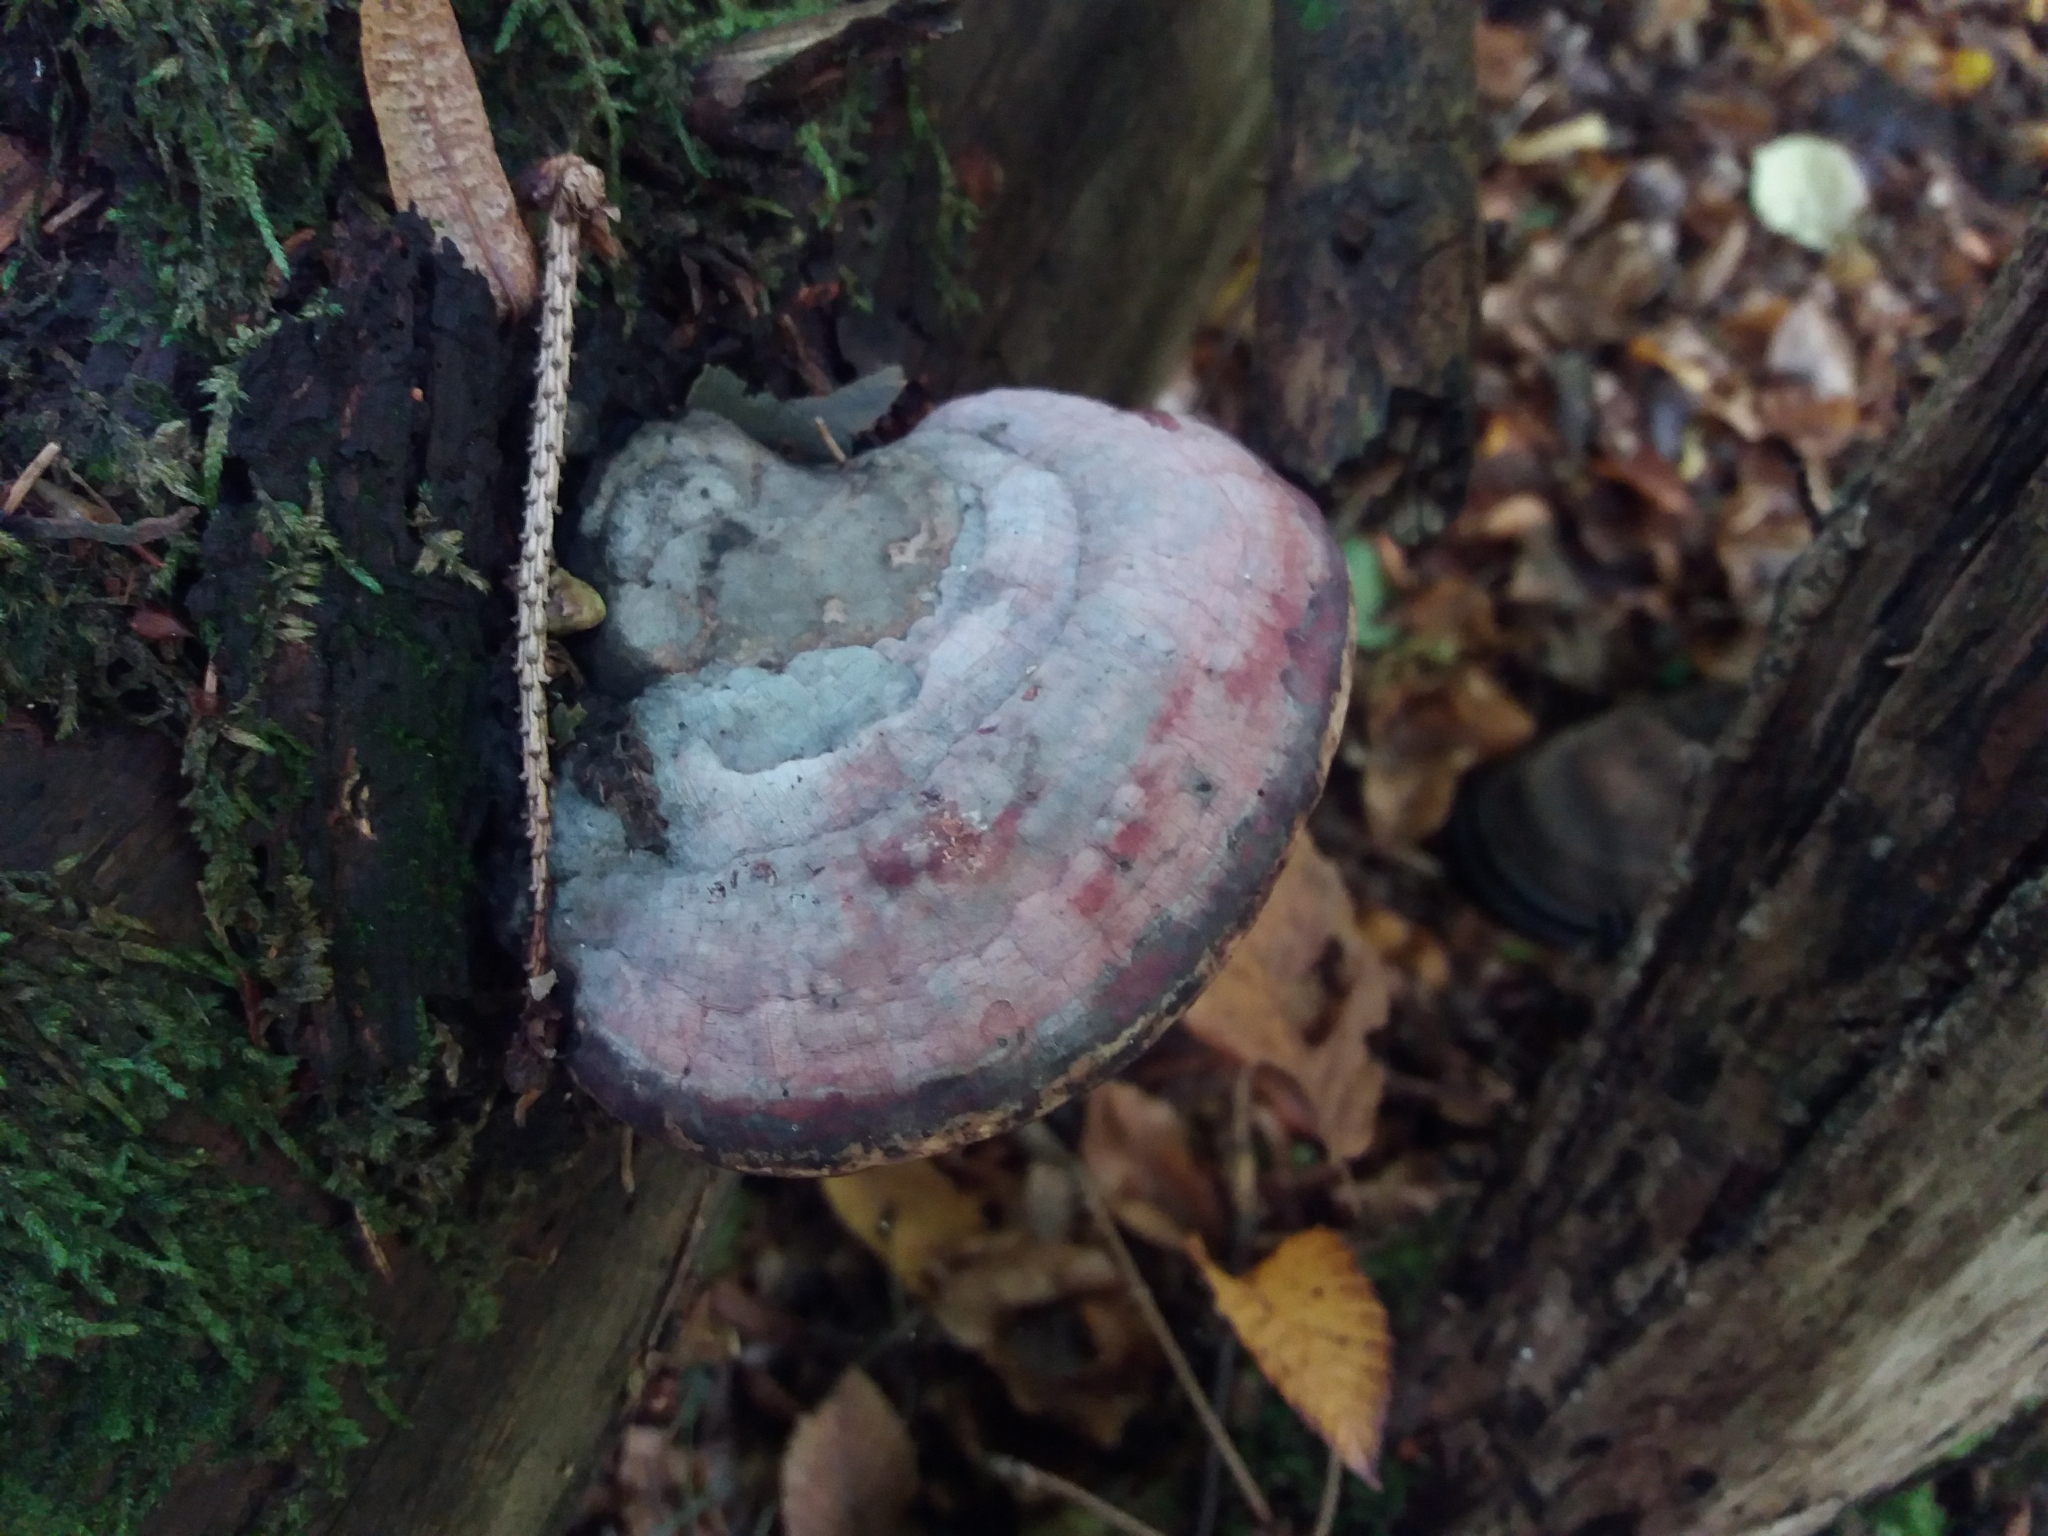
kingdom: Fungi
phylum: Basidiomycota
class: Agaricomycetes
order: Polyporales
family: Fomitopsidaceae
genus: Fomitopsis
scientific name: Fomitopsis pinicola
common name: Red-belted bracket
